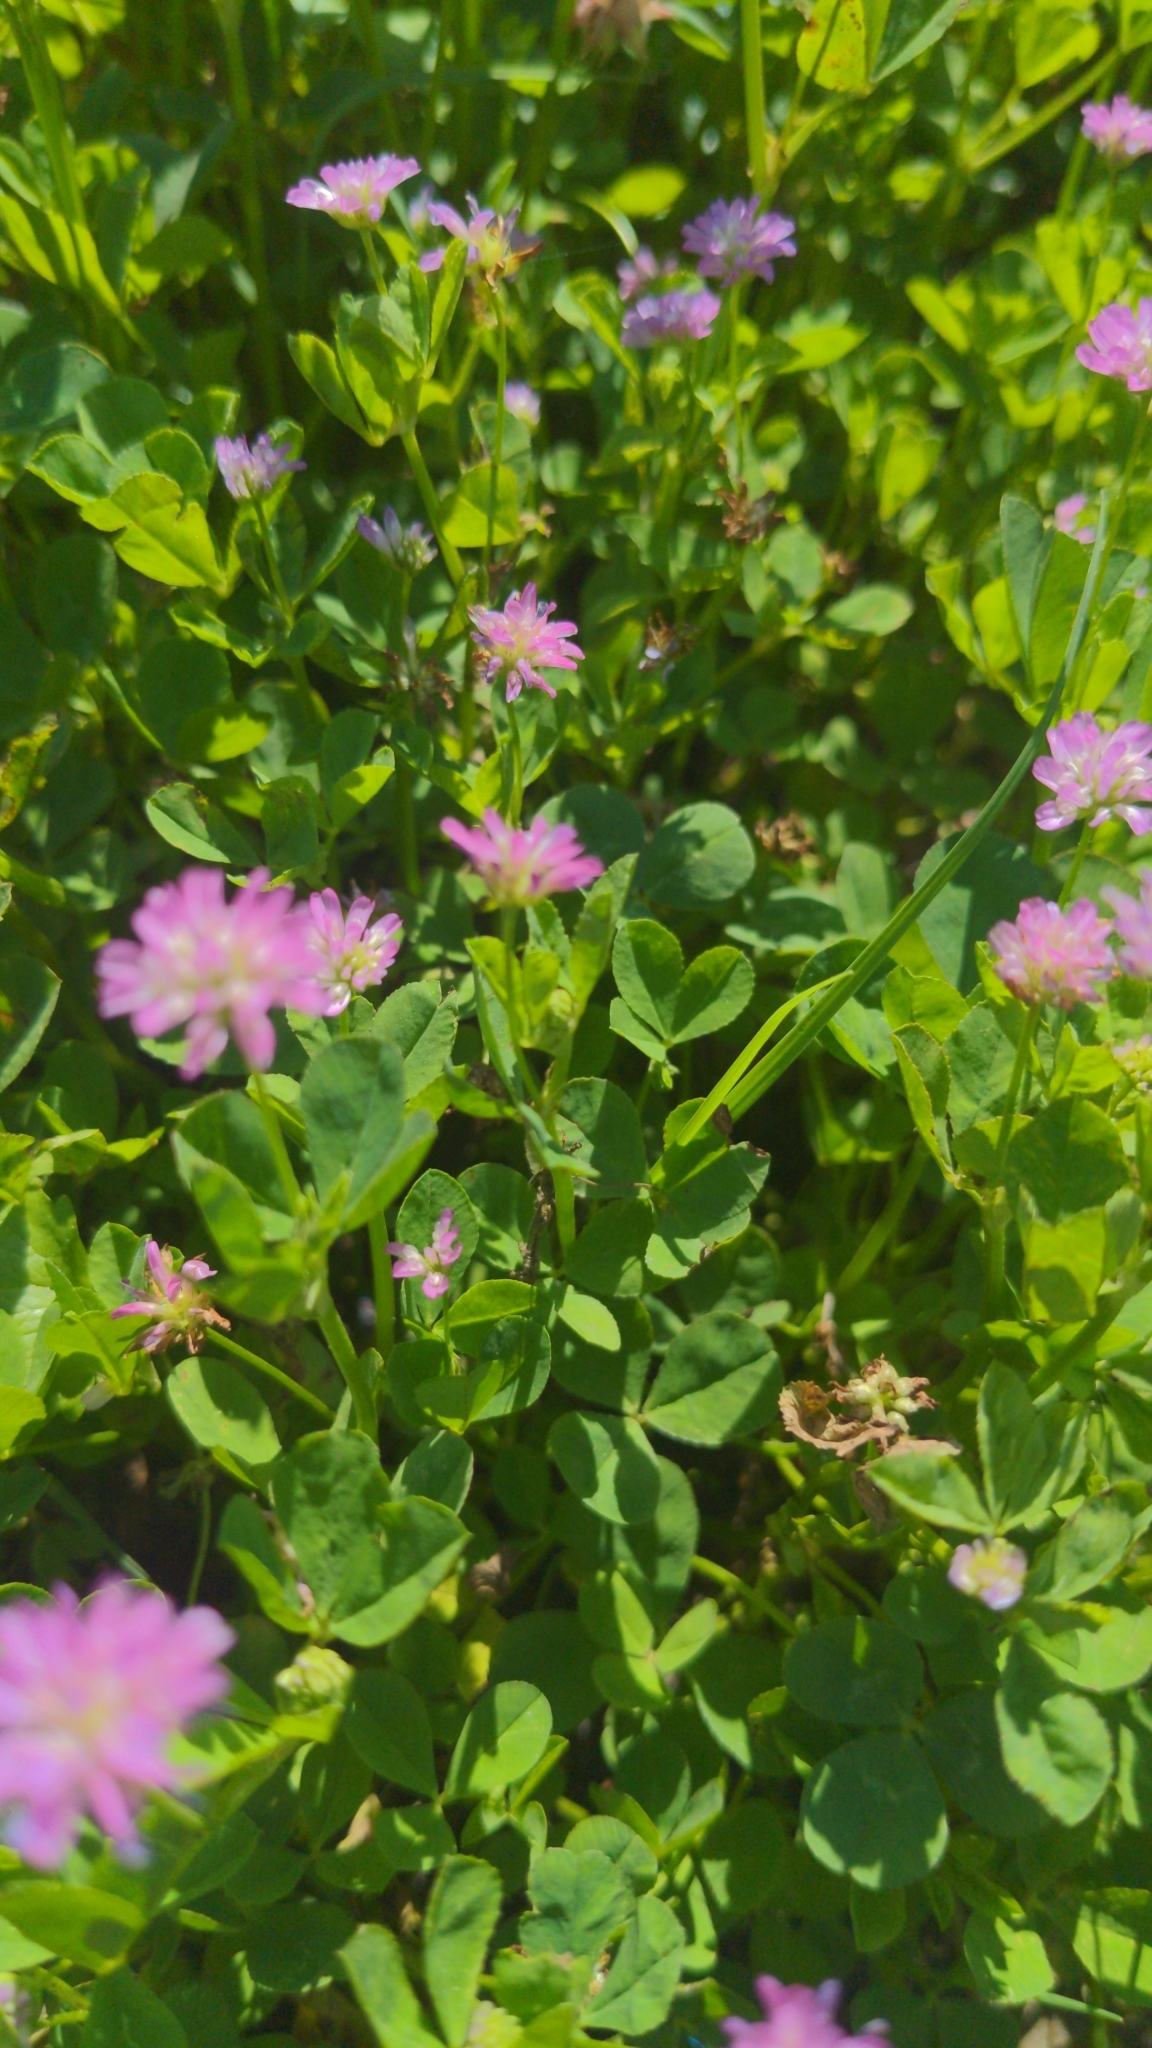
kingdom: Plantae
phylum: Tracheophyta
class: Magnoliopsida
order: Fabales
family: Fabaceae
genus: Trifolium
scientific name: Trifolium resupinatum
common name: Reversed clover
